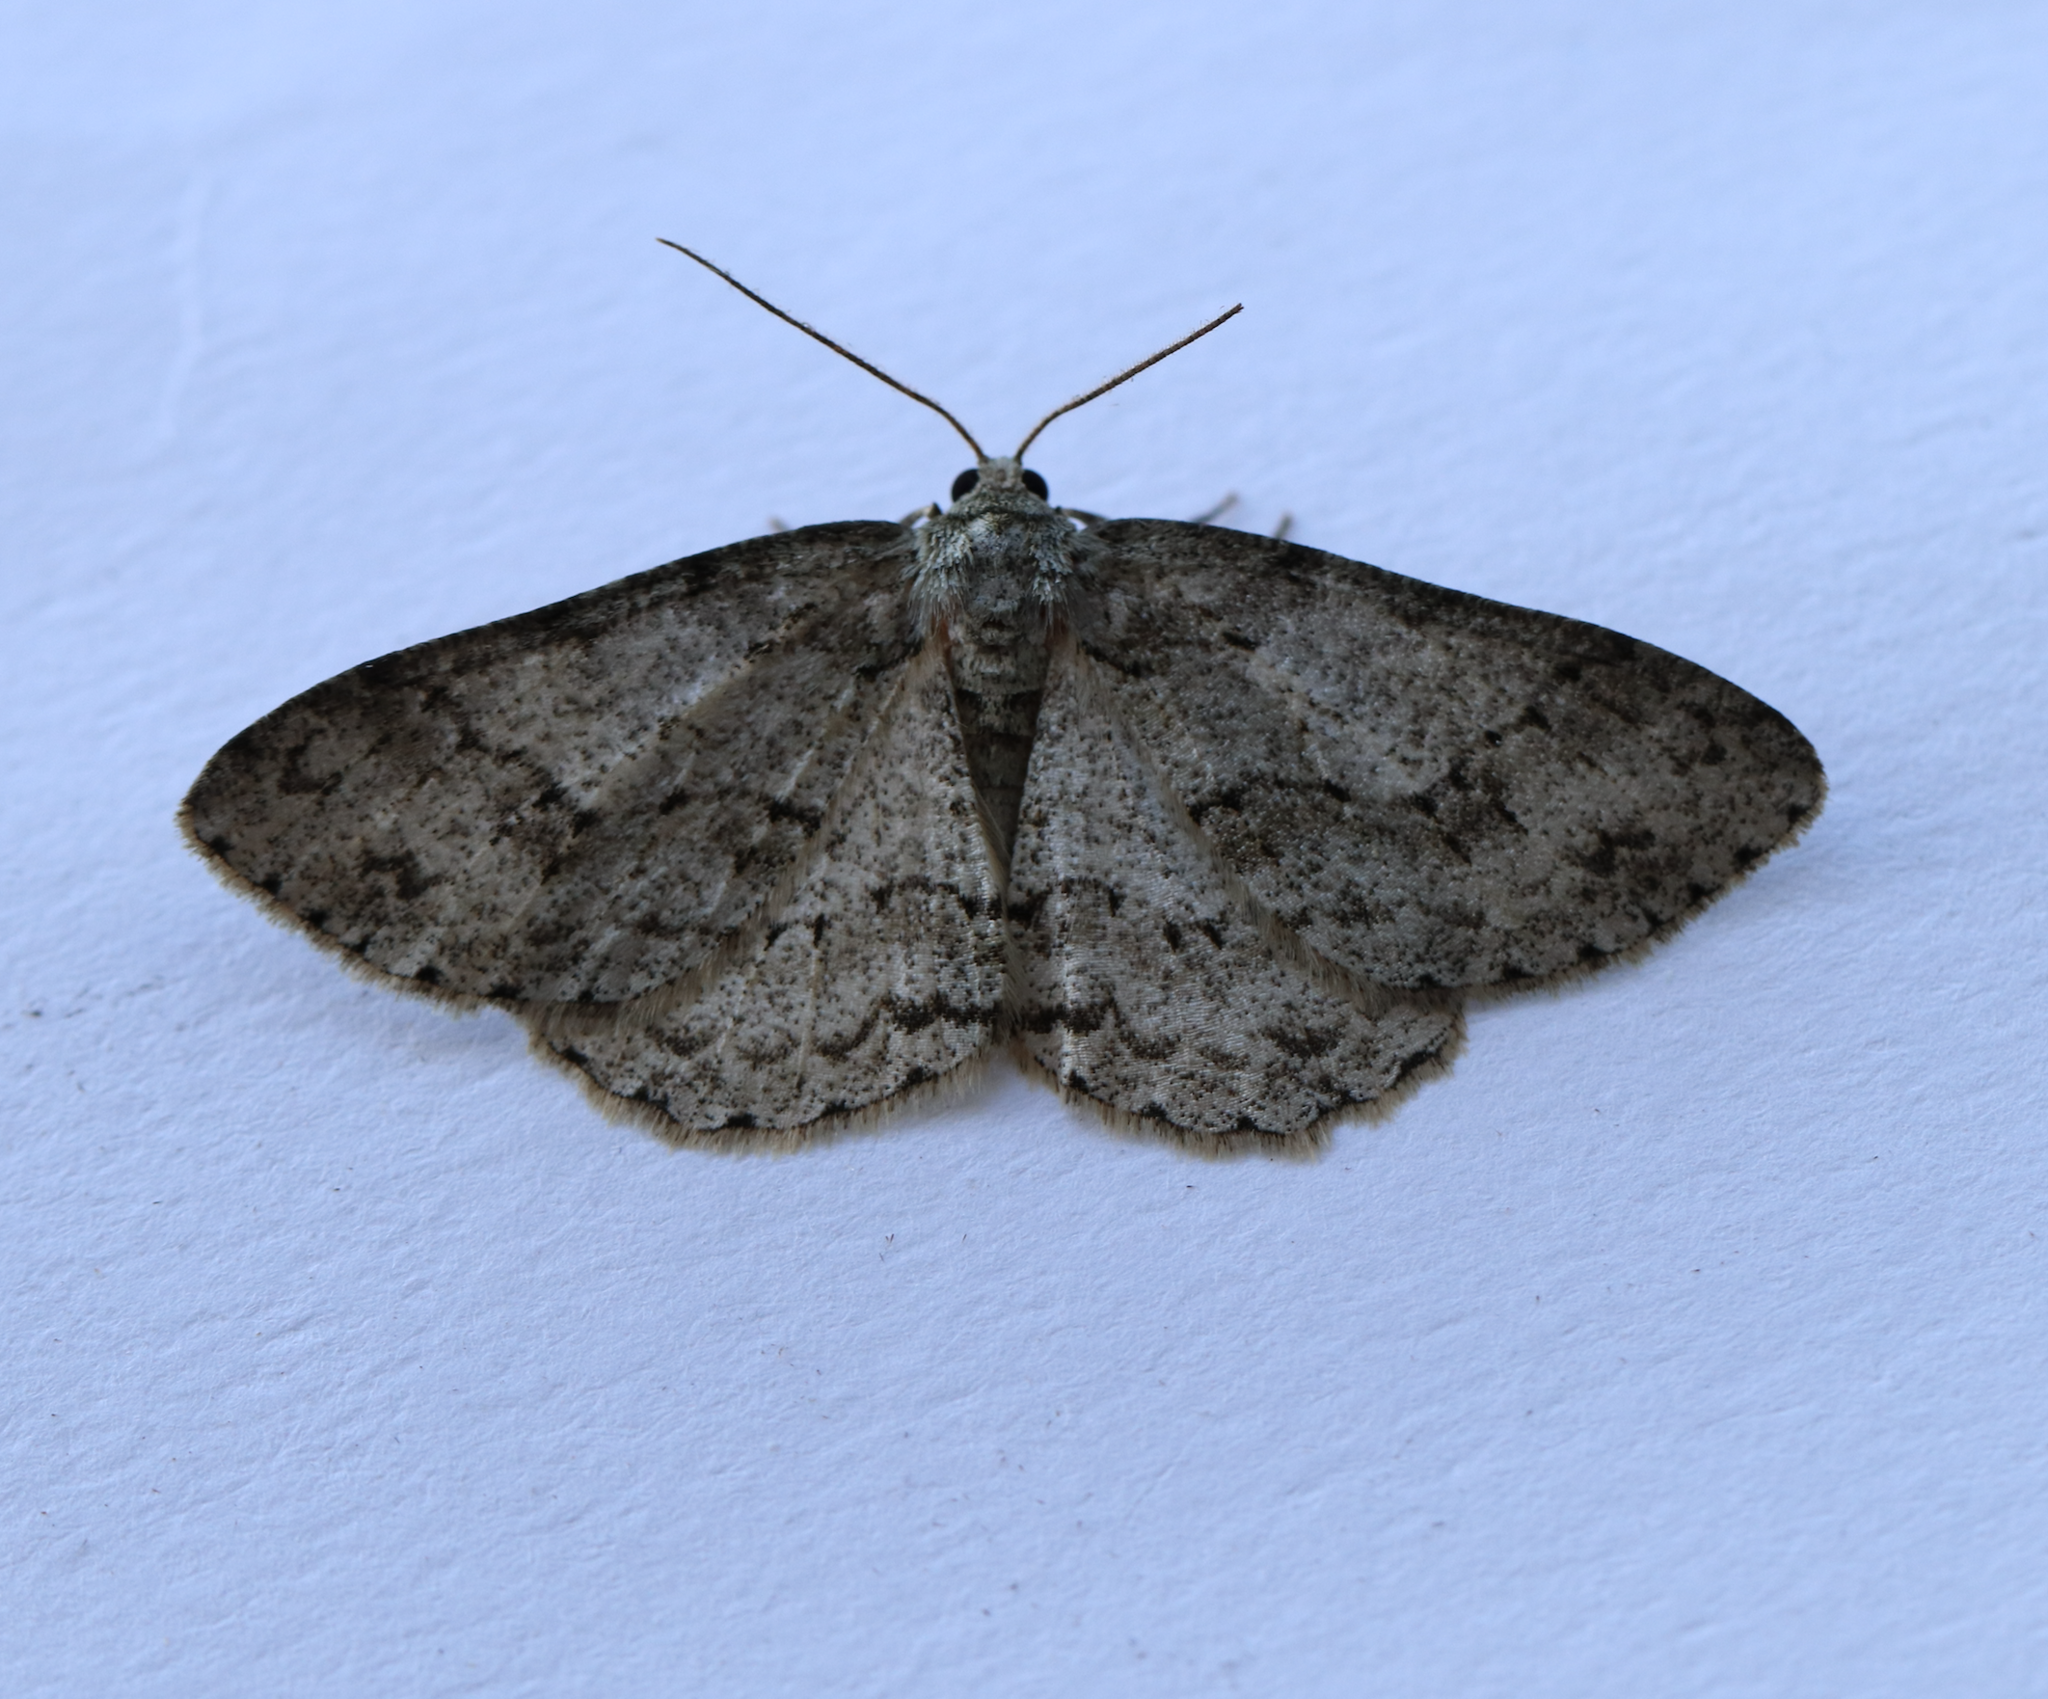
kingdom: Animalia
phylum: Arthropoda
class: Insecta
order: Lepidoptera
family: Geometridae
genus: Ectropis
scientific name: Ectropis crepuscularia
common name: Engrailed
